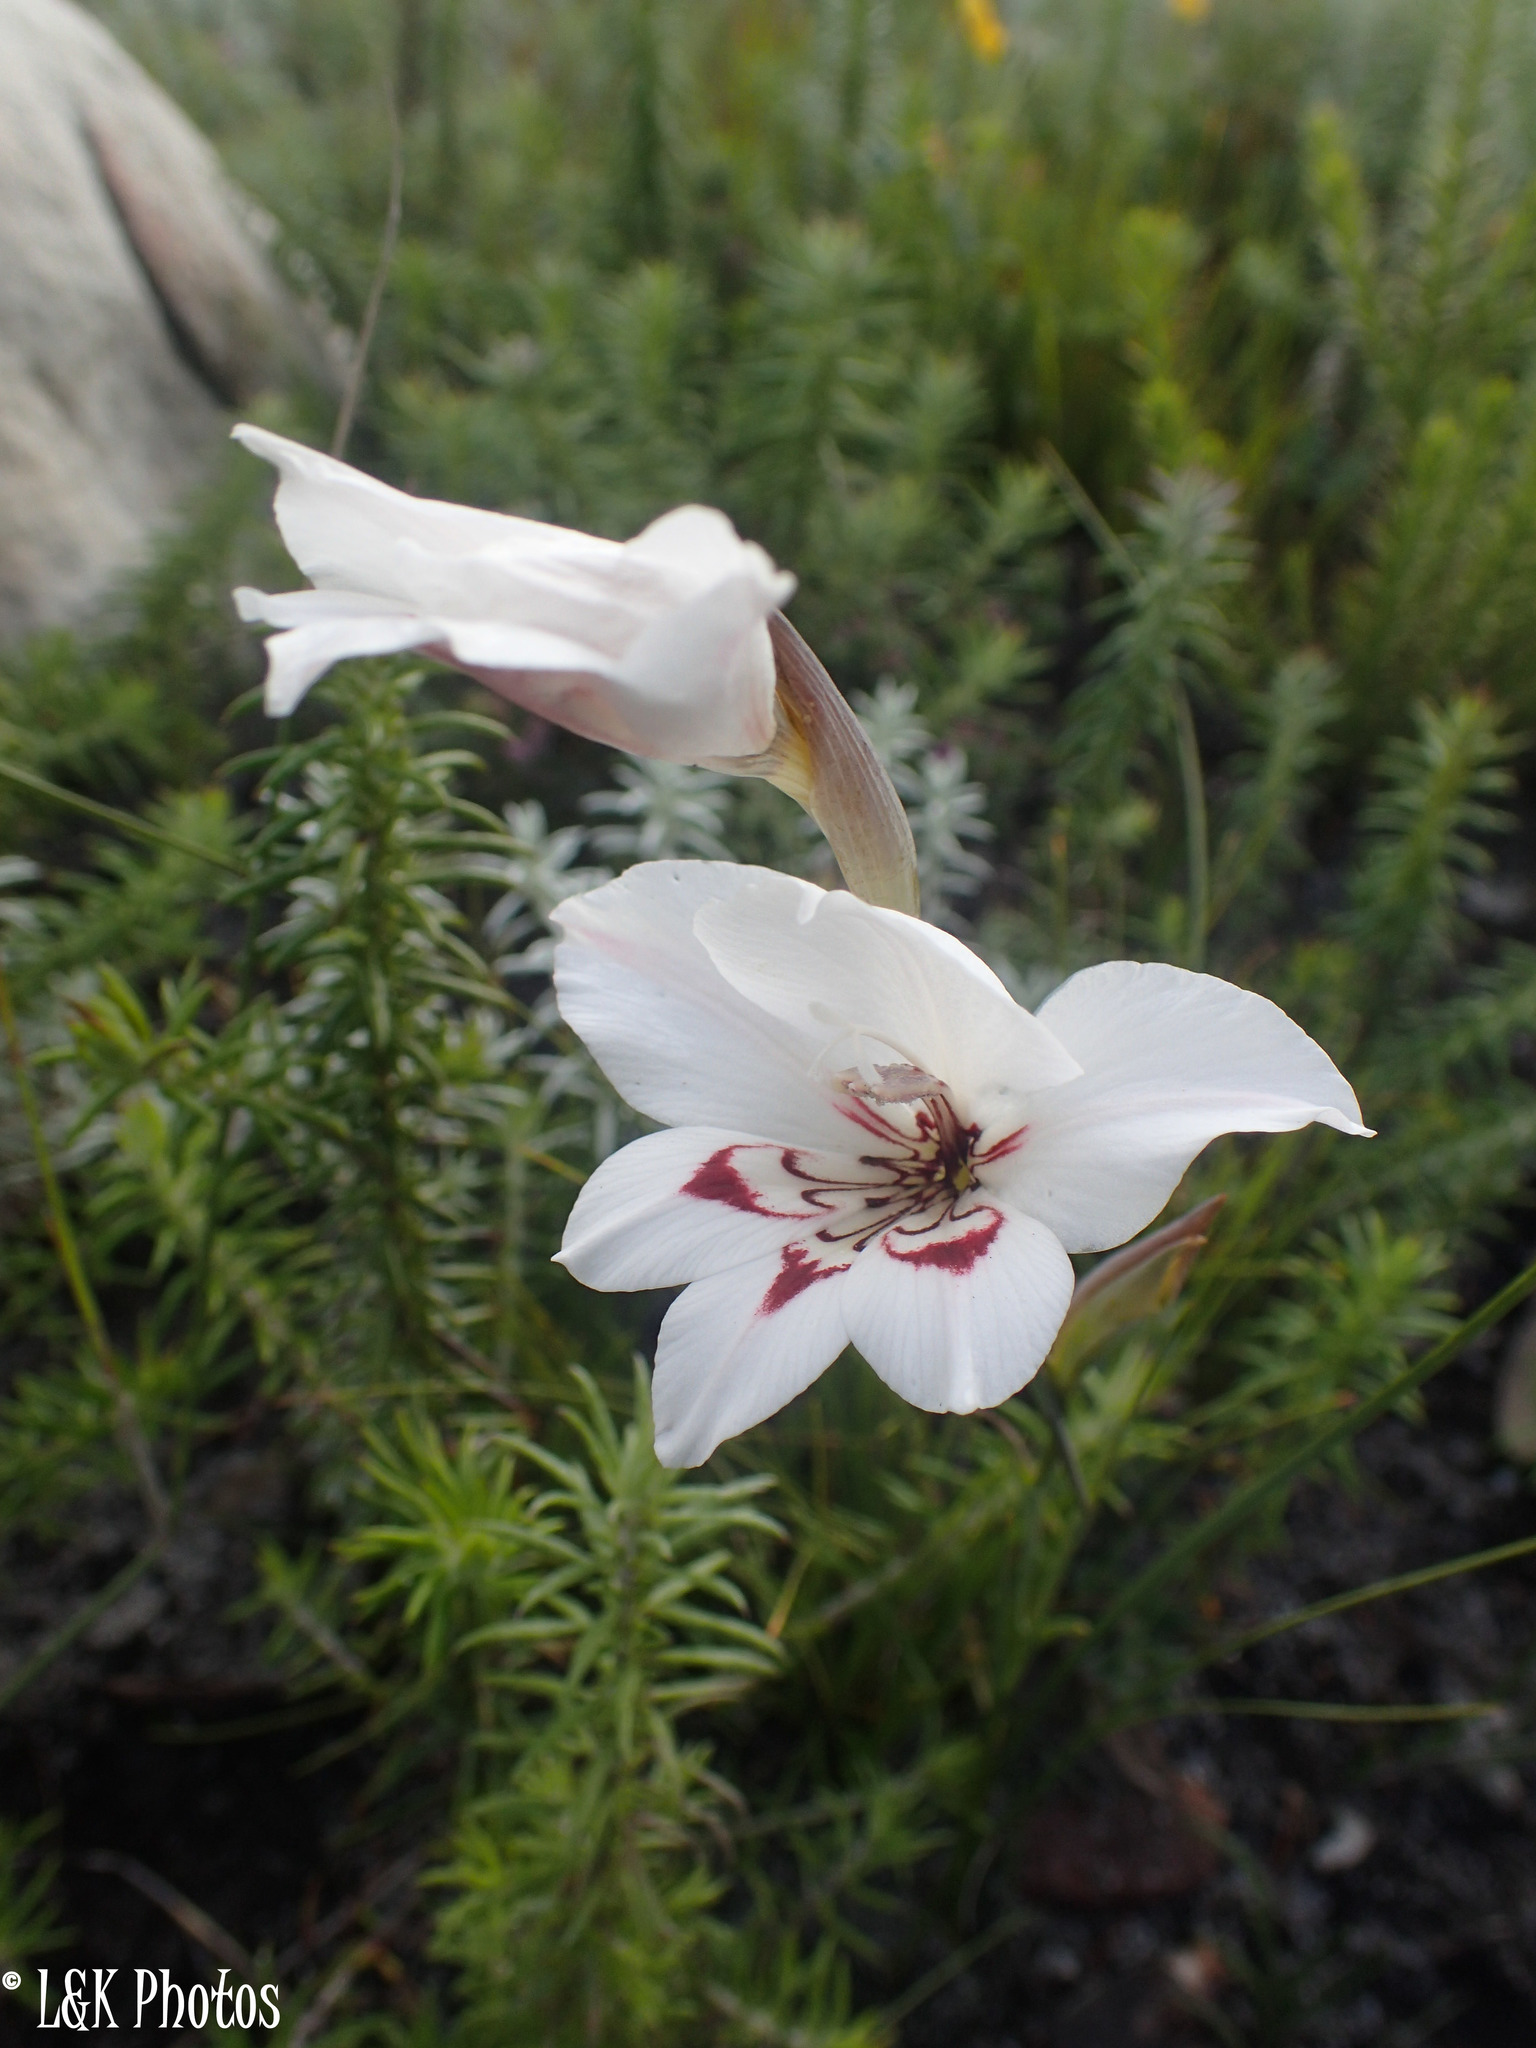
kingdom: Plantae
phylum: Tracheophyta
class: Liliopsida
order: Asparagales
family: Iridaceae
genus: Gladiolus
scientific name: Gladiolus debilis
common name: Painted-lady
